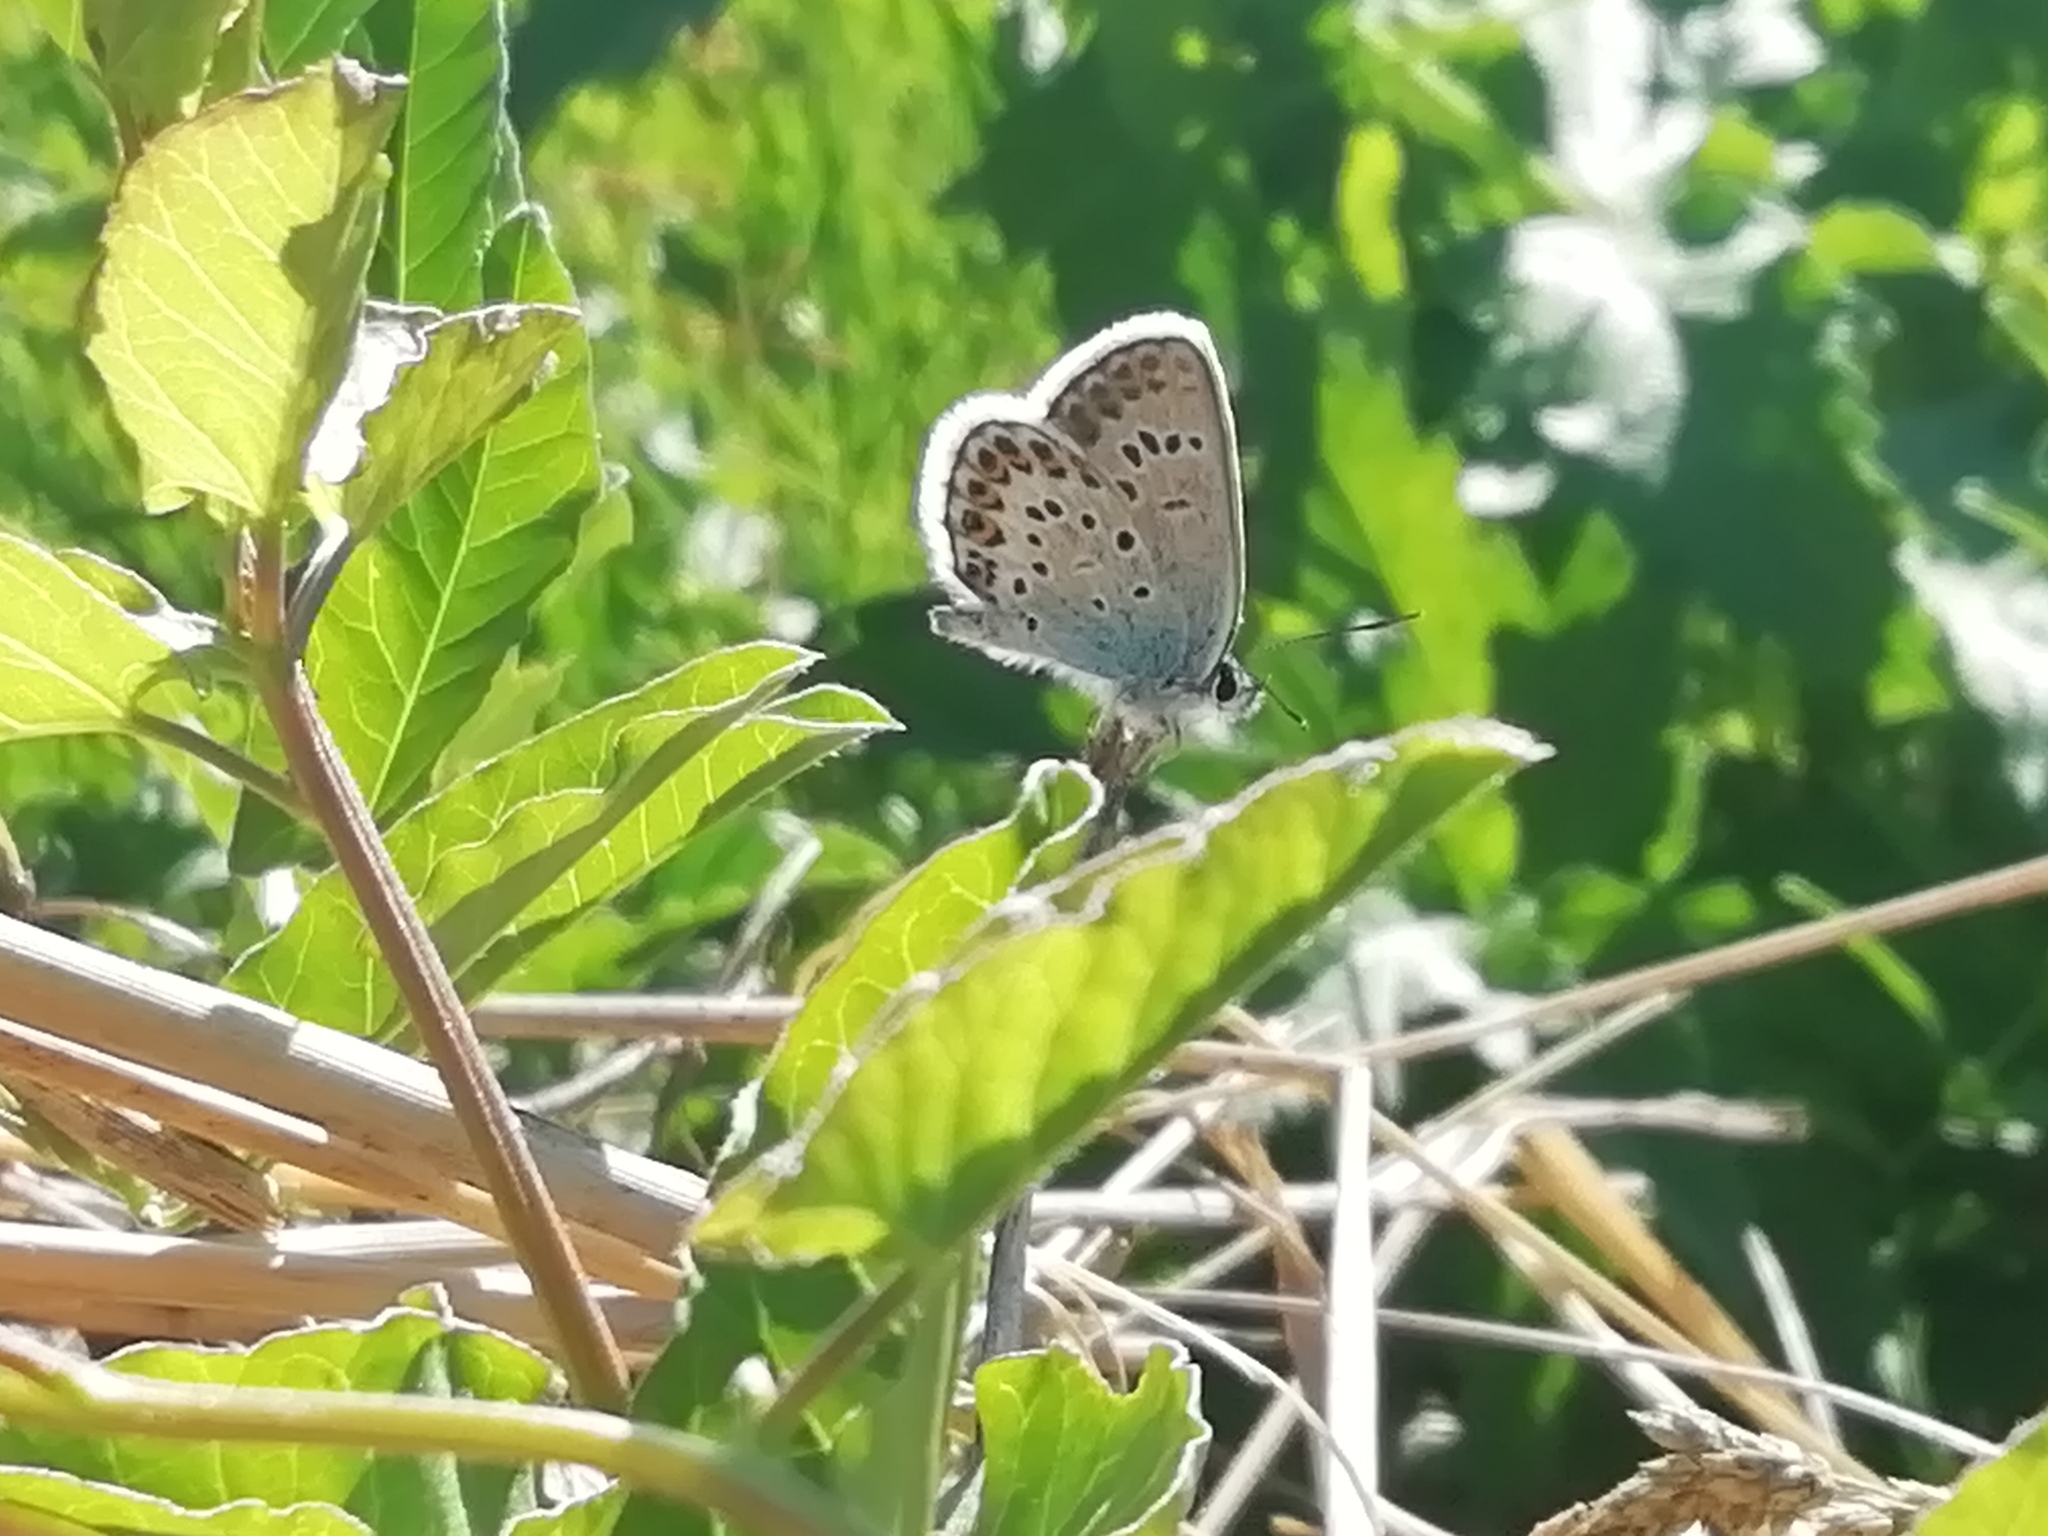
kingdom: Animalia
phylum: Arthropoda
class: Insecta
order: Lepidoptera
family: Lycaenidae
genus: Plebejus
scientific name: Plebejus argus
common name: Silver-studded blue
